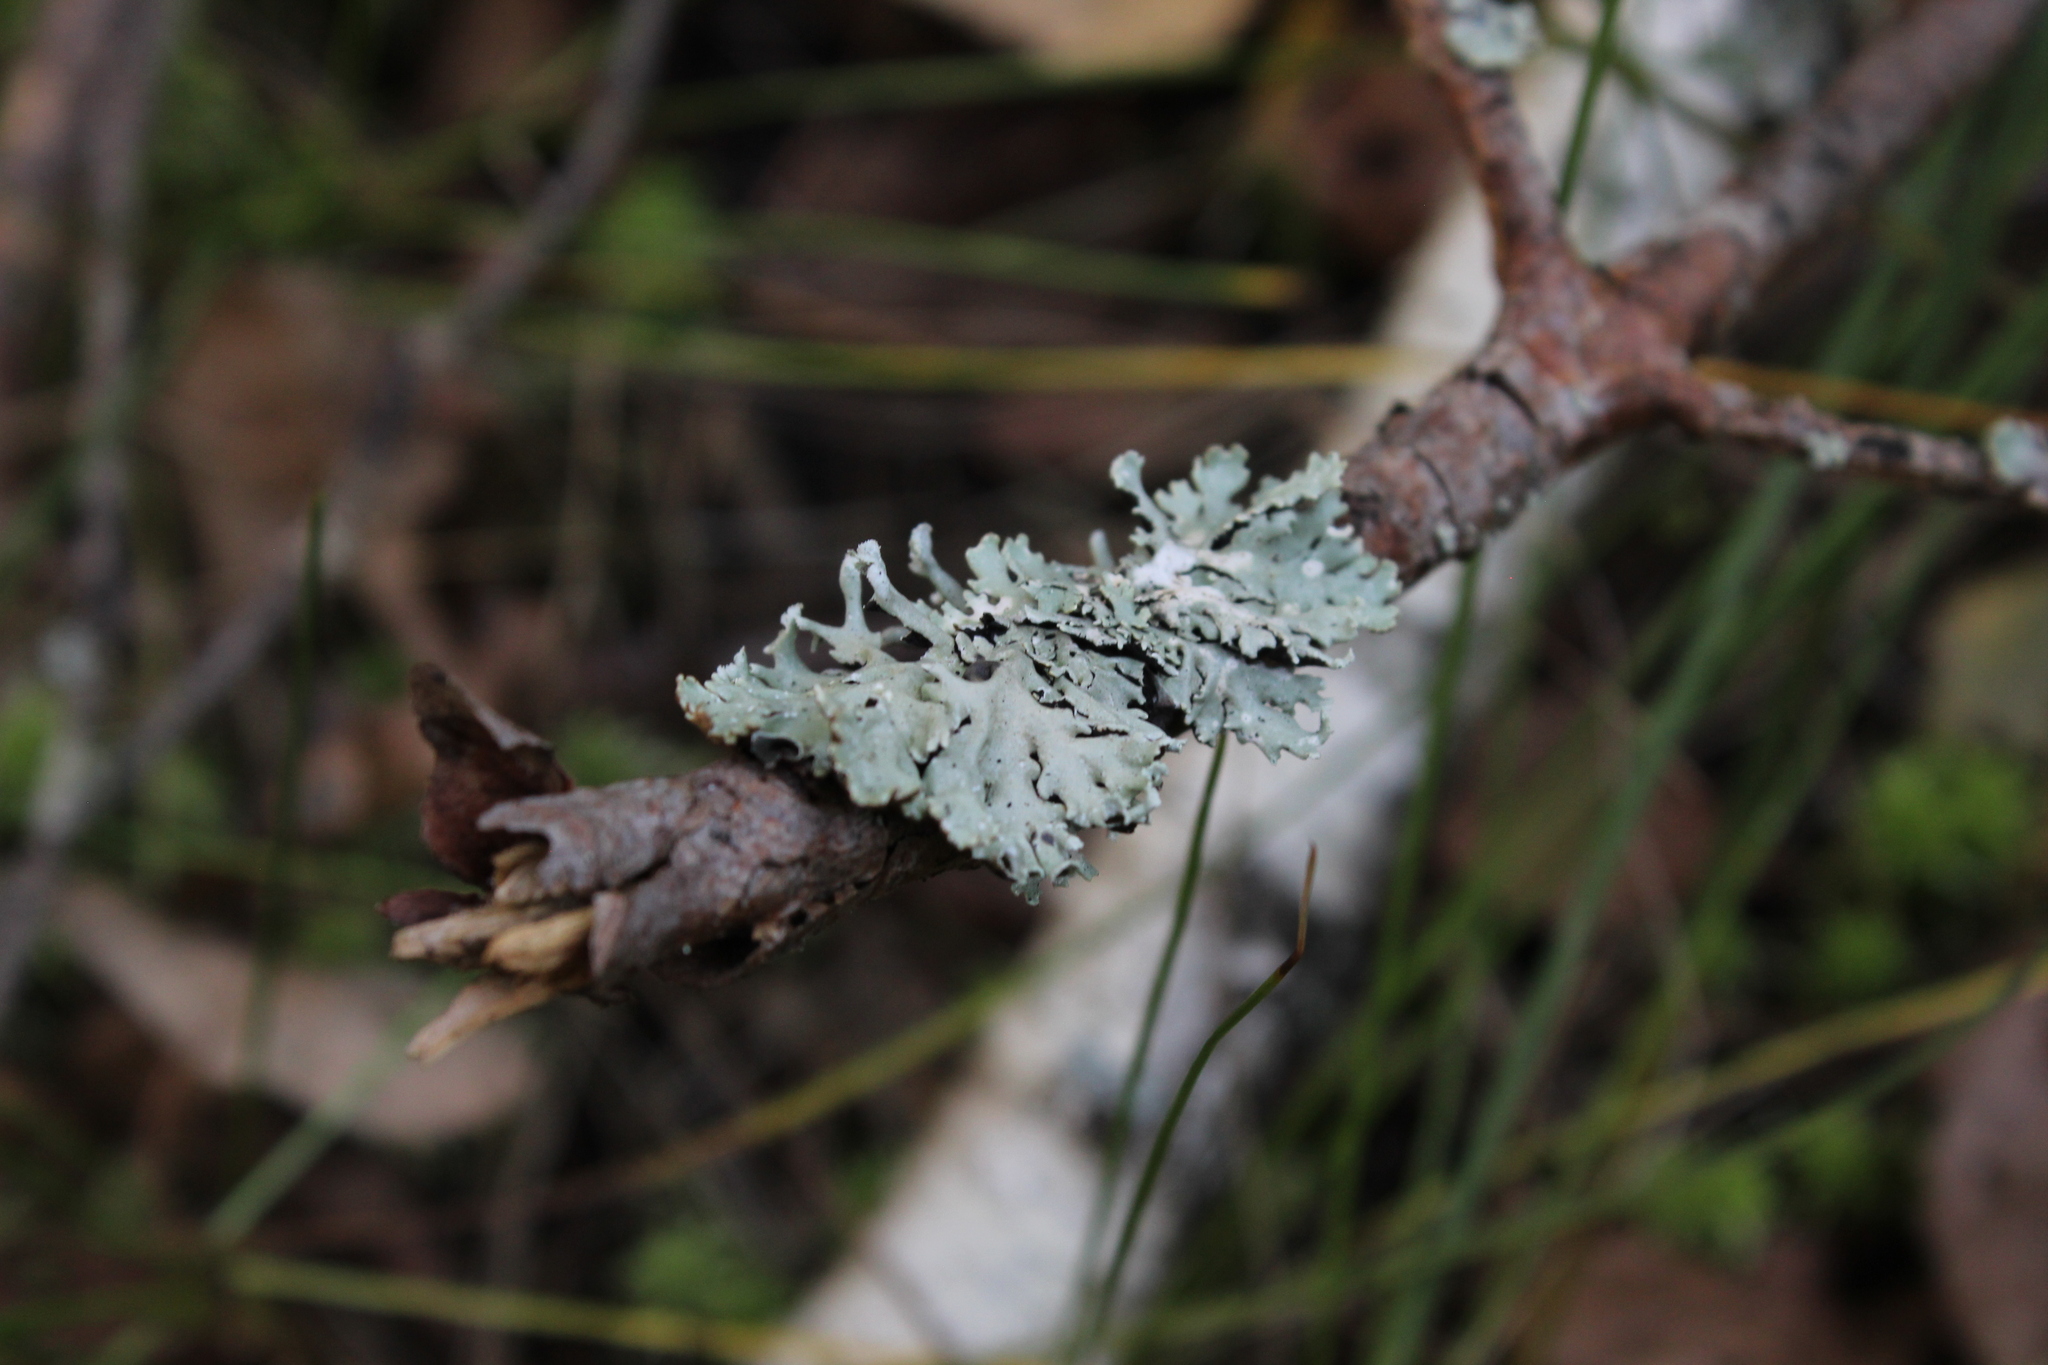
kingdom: Fungi
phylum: Ascomycota
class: Lecanoromycetes
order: Lecanorales
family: Parmeliaceae
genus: Hypogymnia
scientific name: Hypogymnia physodes
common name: Dark crottle
